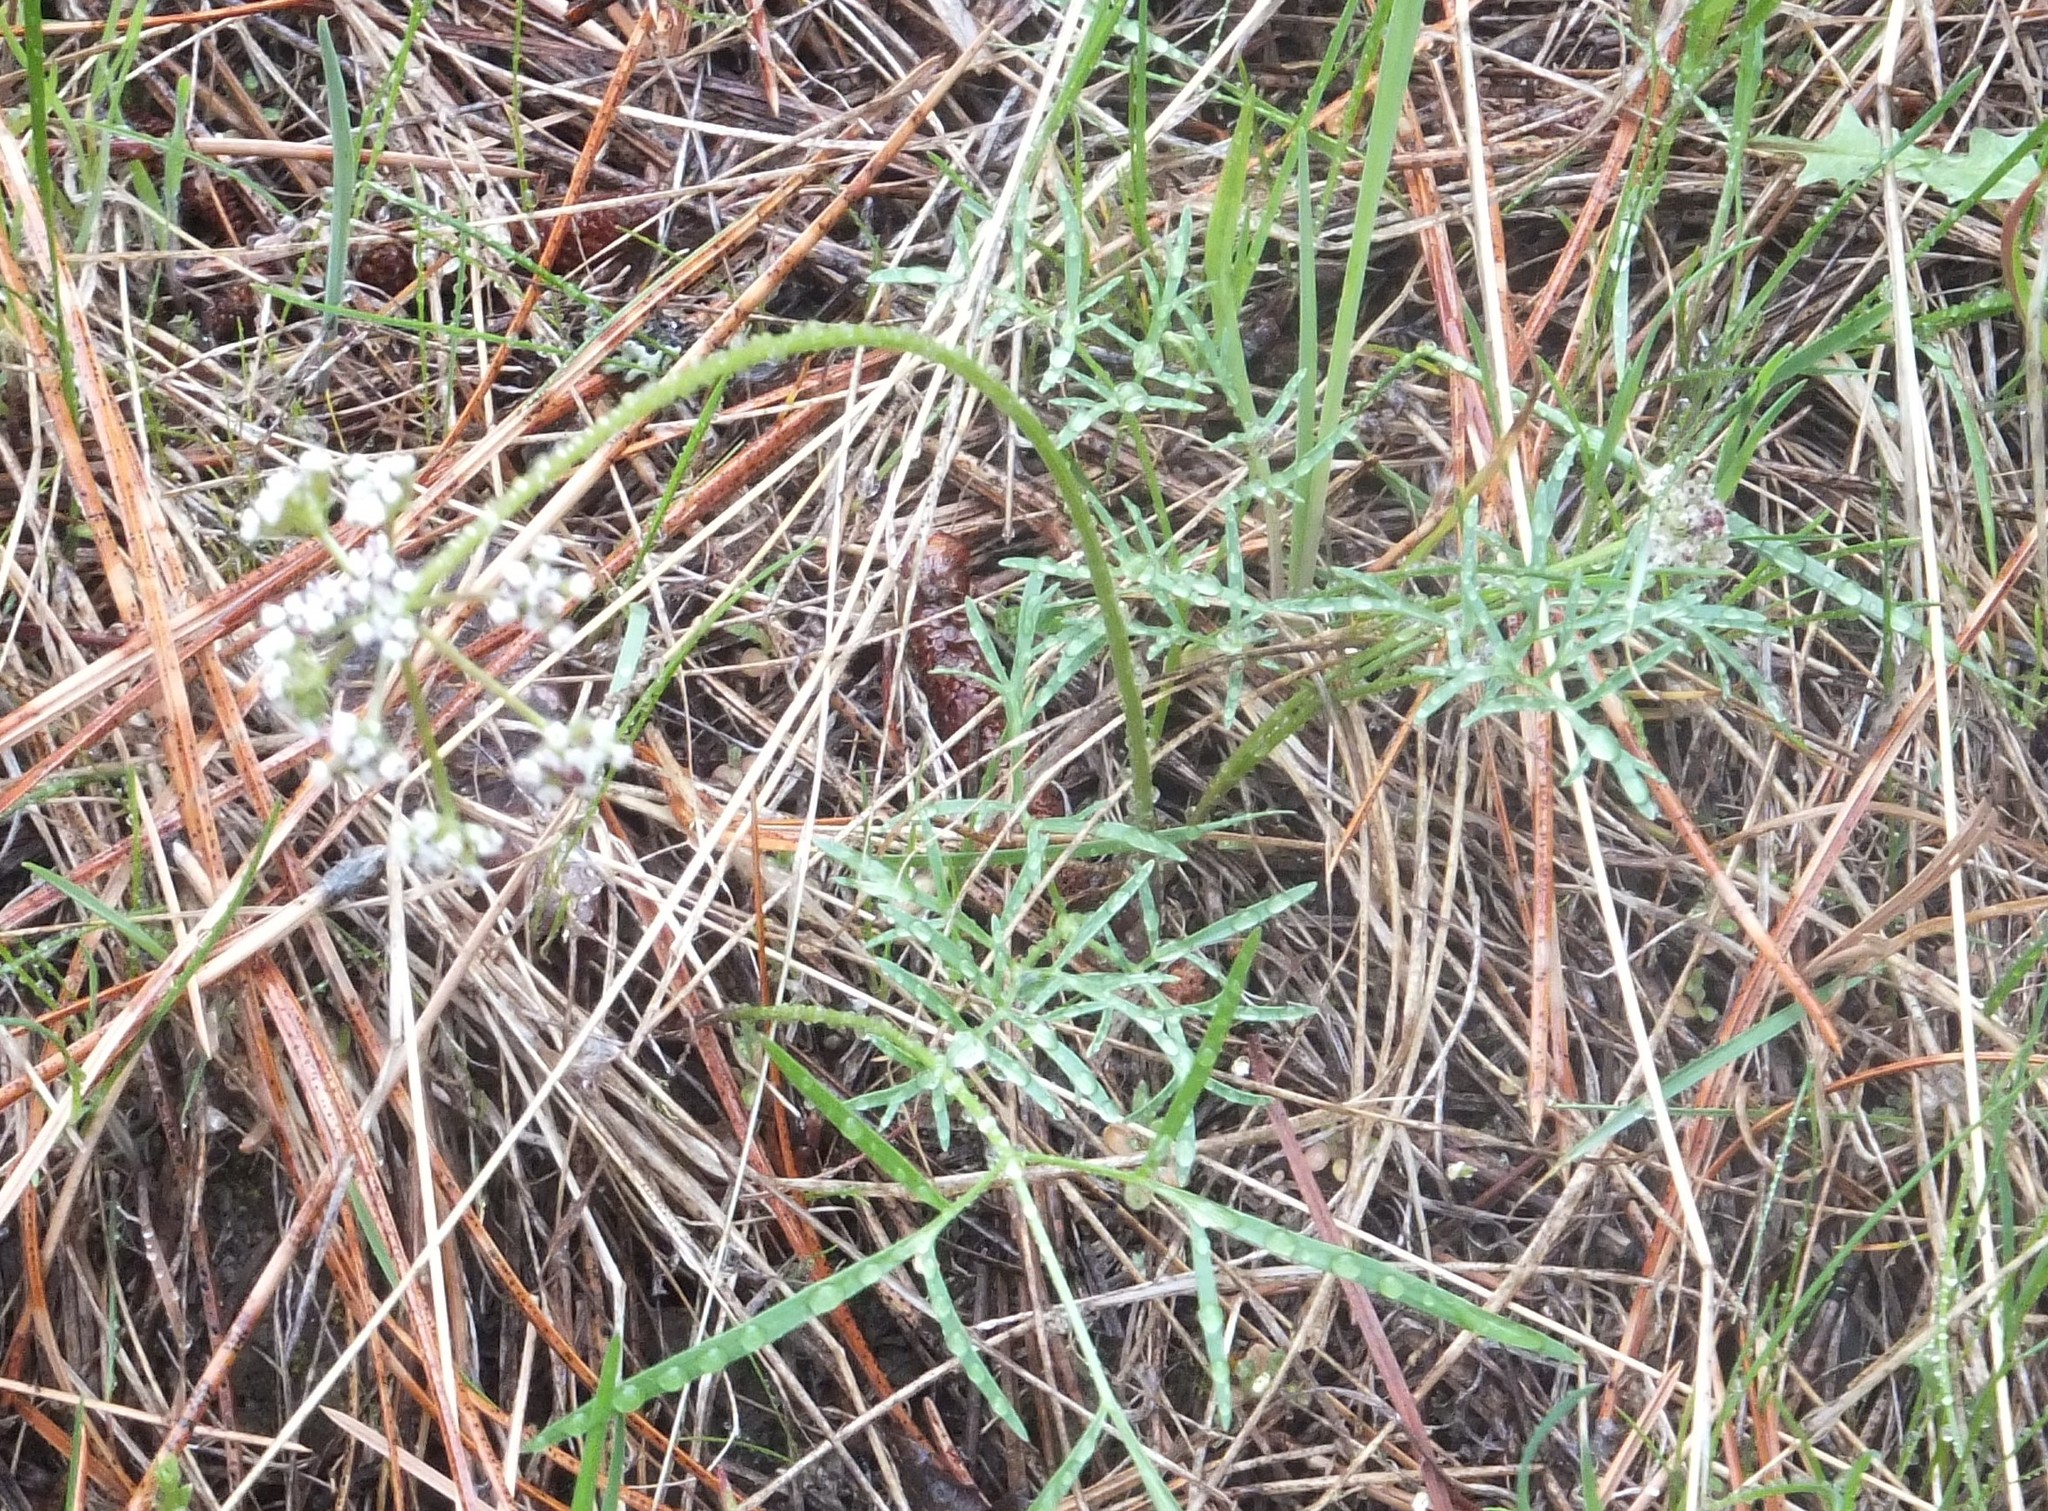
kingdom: Plantae
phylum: Tracheophyta
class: Magnoliopsida
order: Apiales
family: Apiaceae
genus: Lomatium
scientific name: Lomatium geyeri
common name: Geyer's biscuitroot
